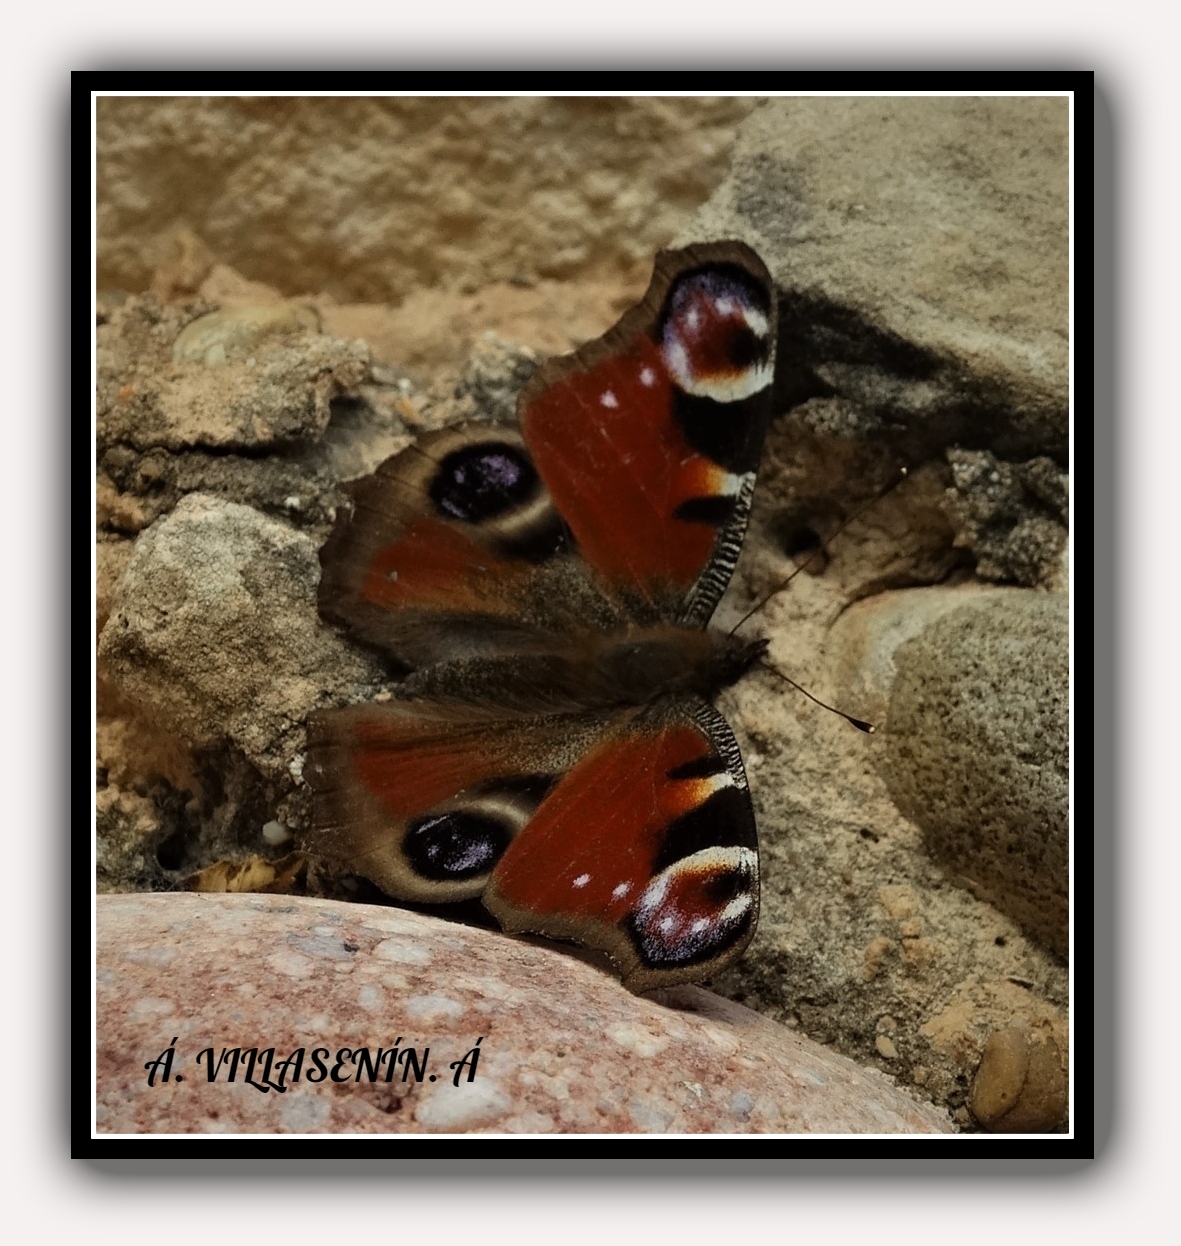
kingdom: Animalia
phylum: Arthropoda
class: Insecta
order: Lepidoptera
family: Nymphalidae
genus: Aglais
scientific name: Aglais io
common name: Peacock
